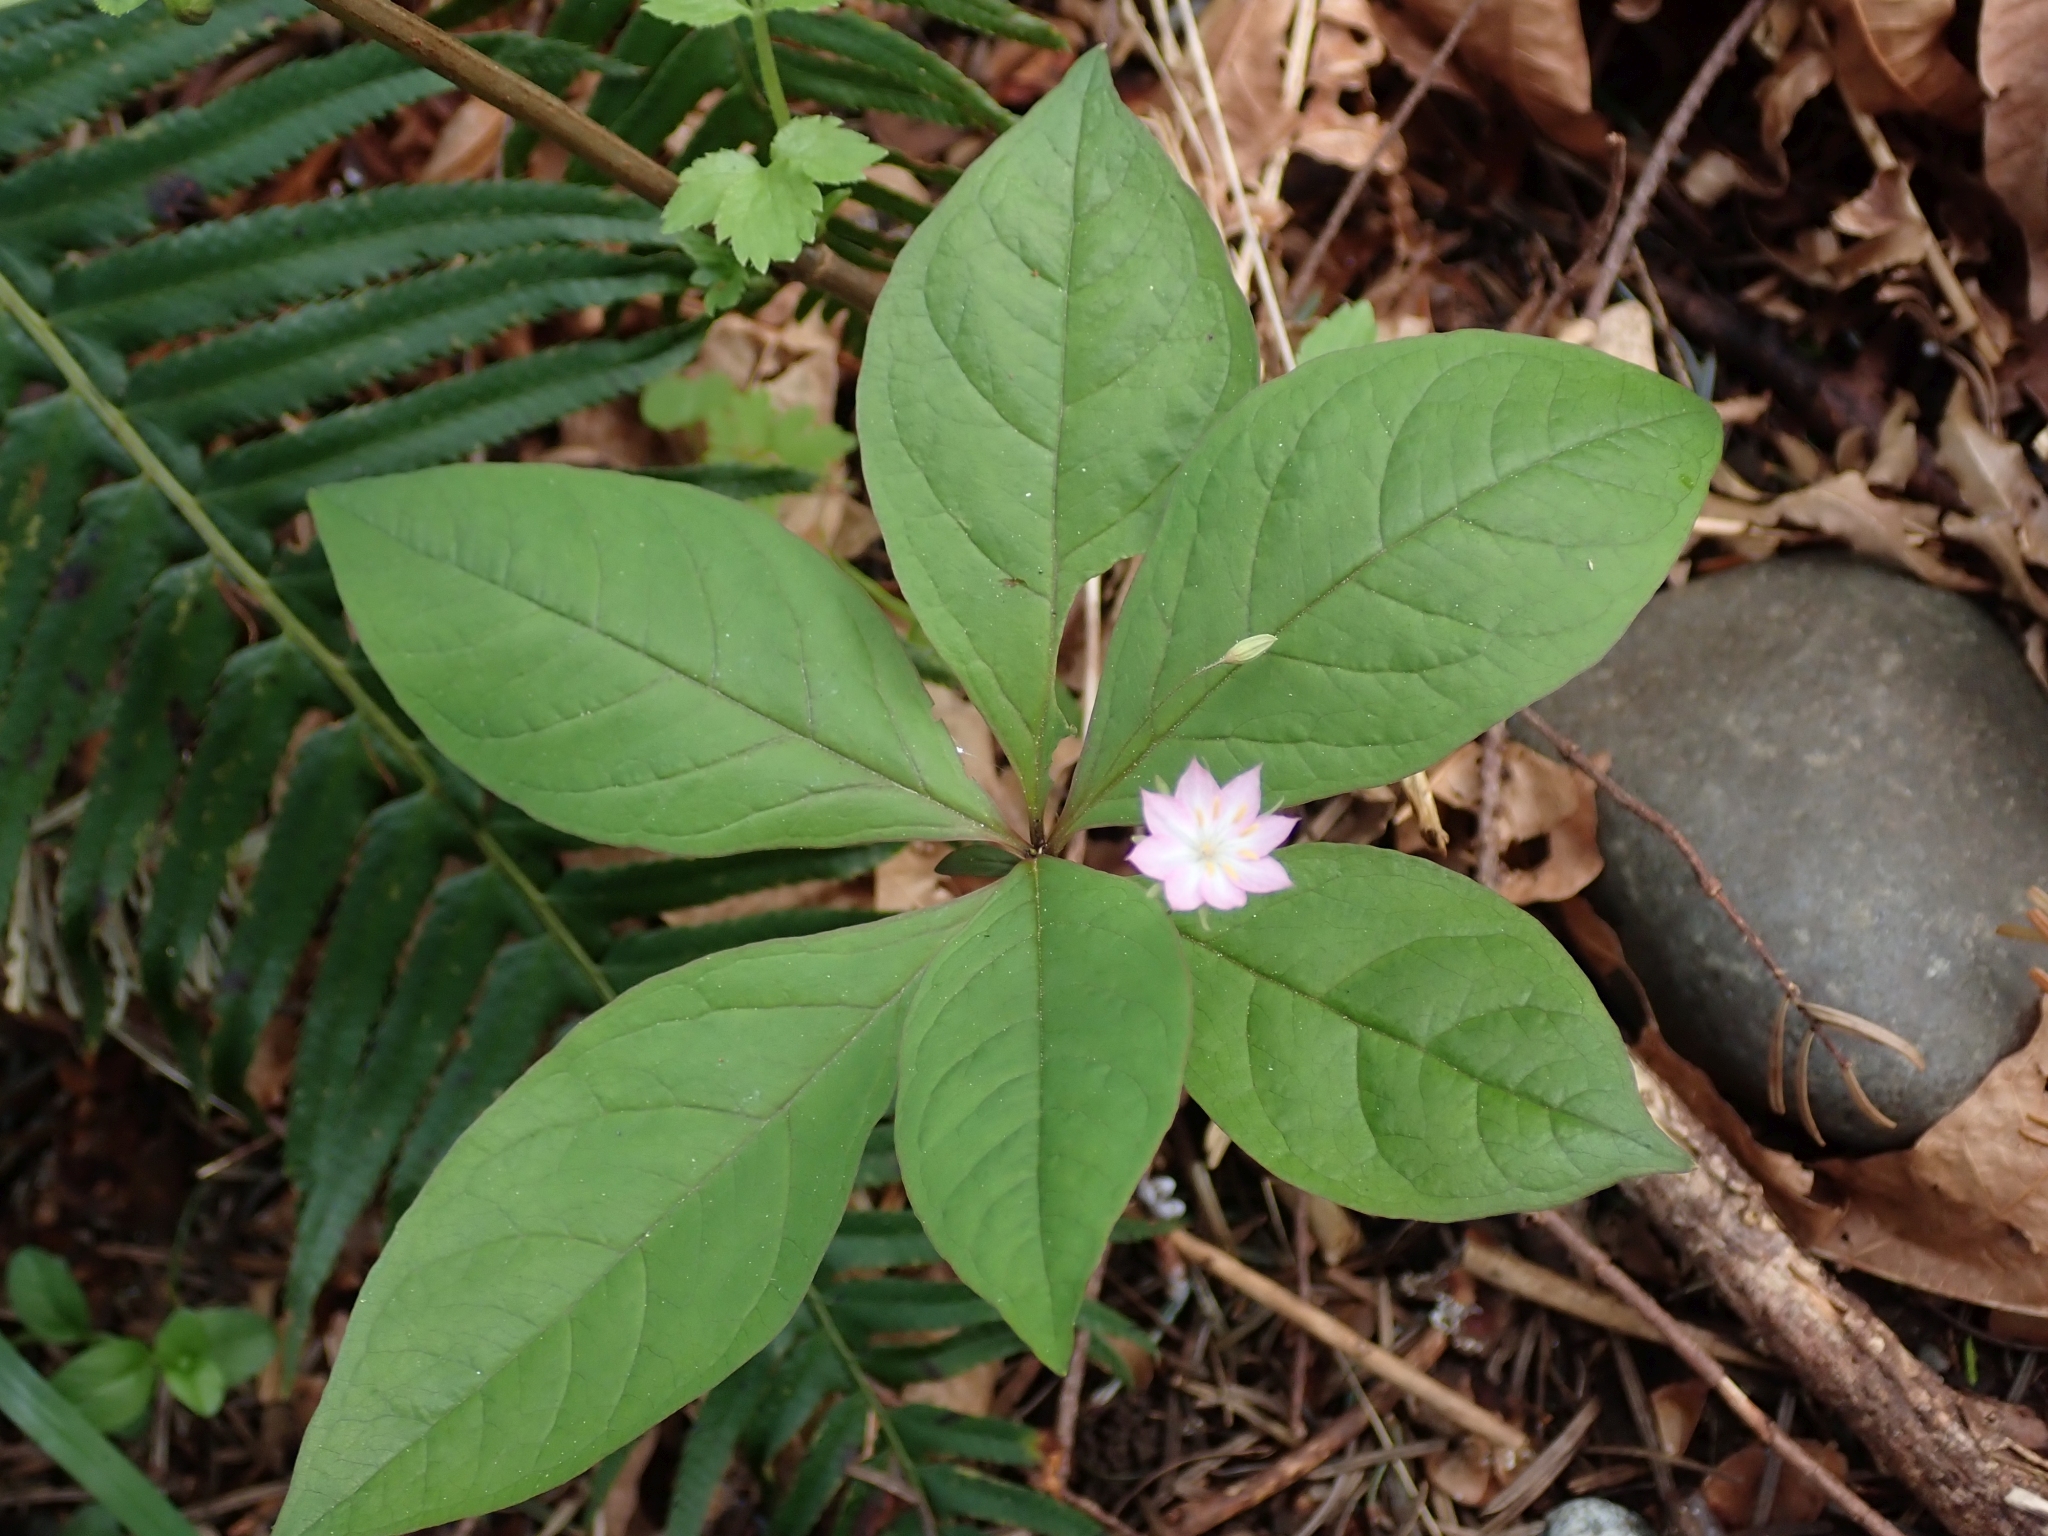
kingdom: Plantae
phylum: Tracheophyta
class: Magnoliopsida
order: Ericales
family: Primulaceae
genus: Lysimachia
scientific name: Lysimachia latifolia
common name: Pacific starflower
